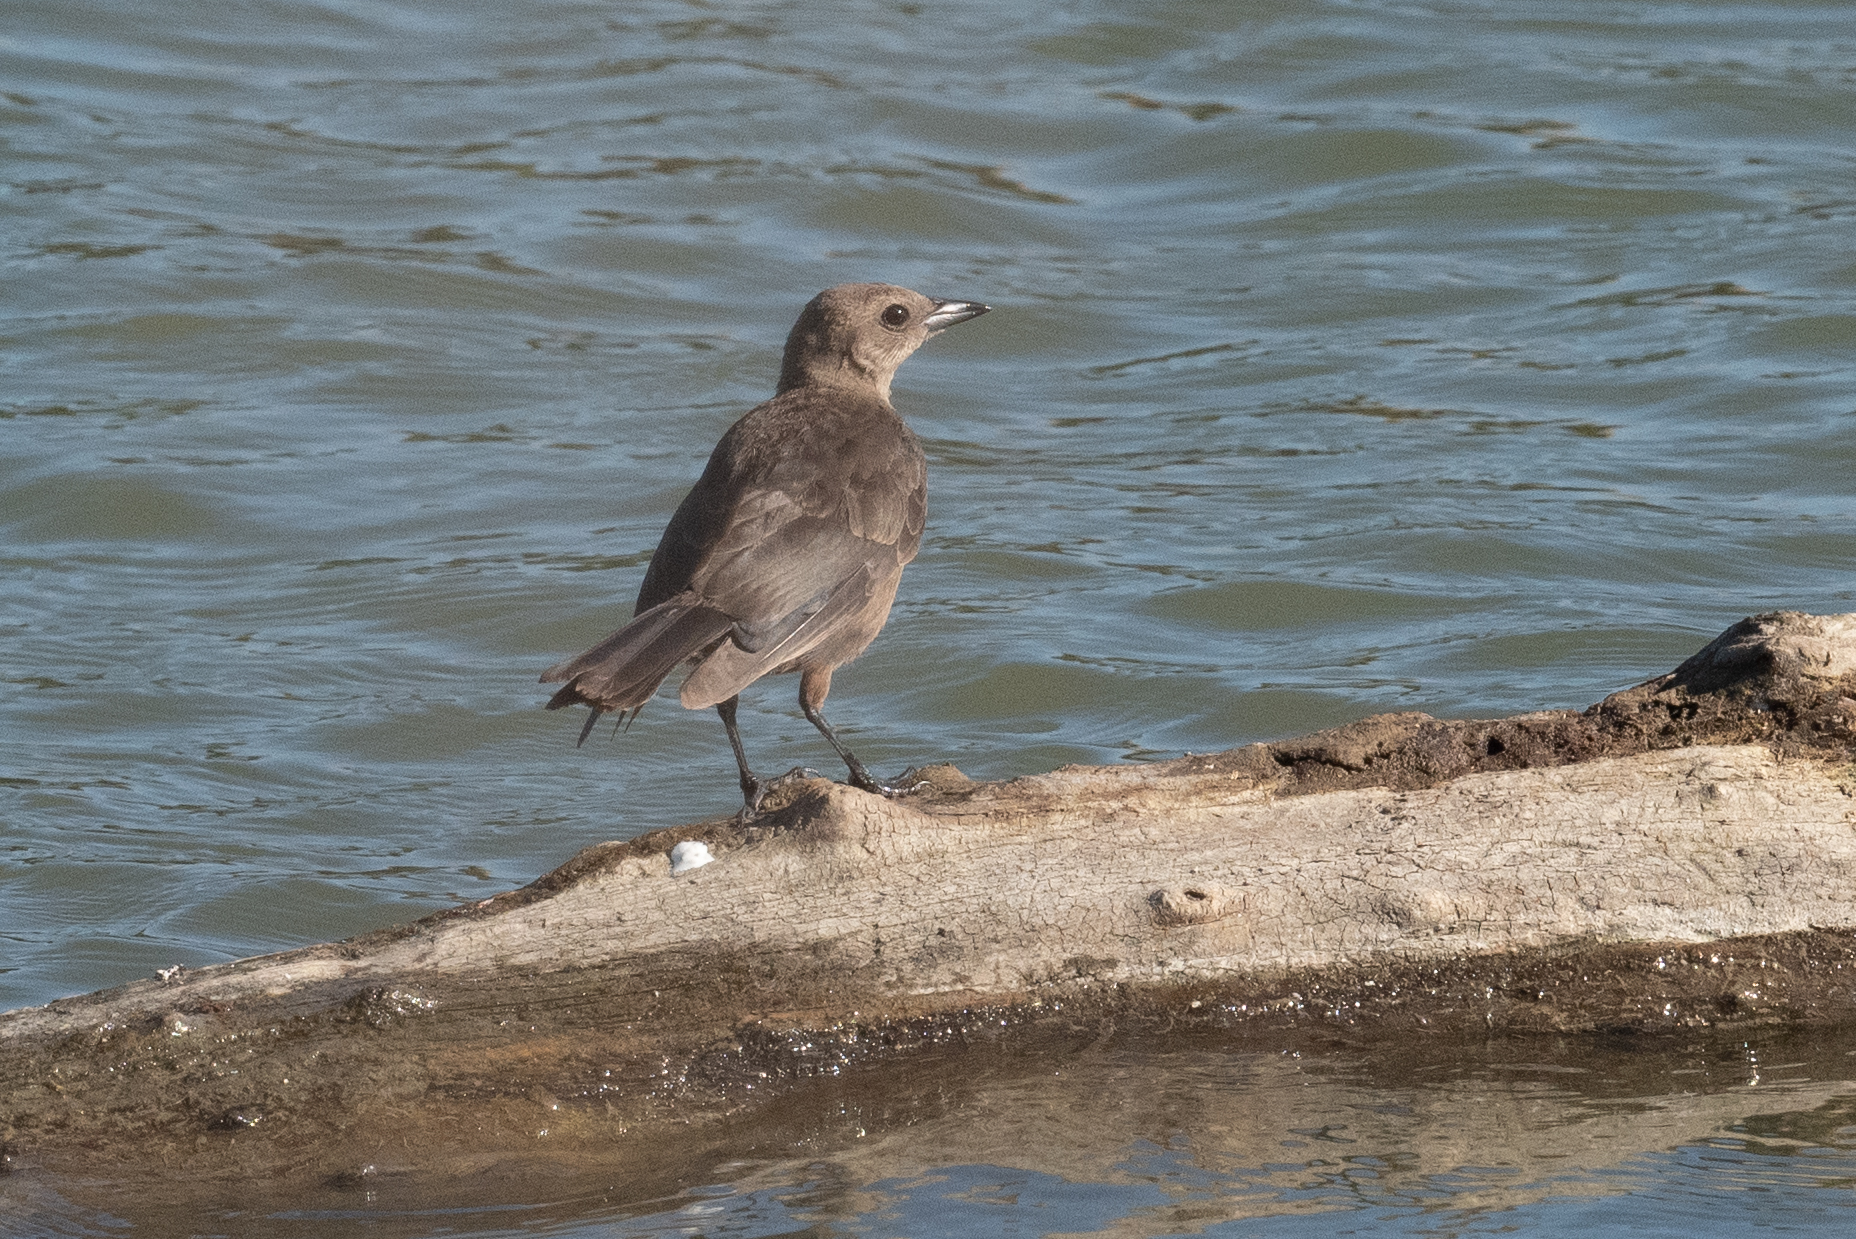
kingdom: Animalia
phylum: Chordata
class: Aves
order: Passeriformes
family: Icteridae
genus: Euphagus
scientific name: Euphagus cyanocephalus
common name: Brewer's blackbird
